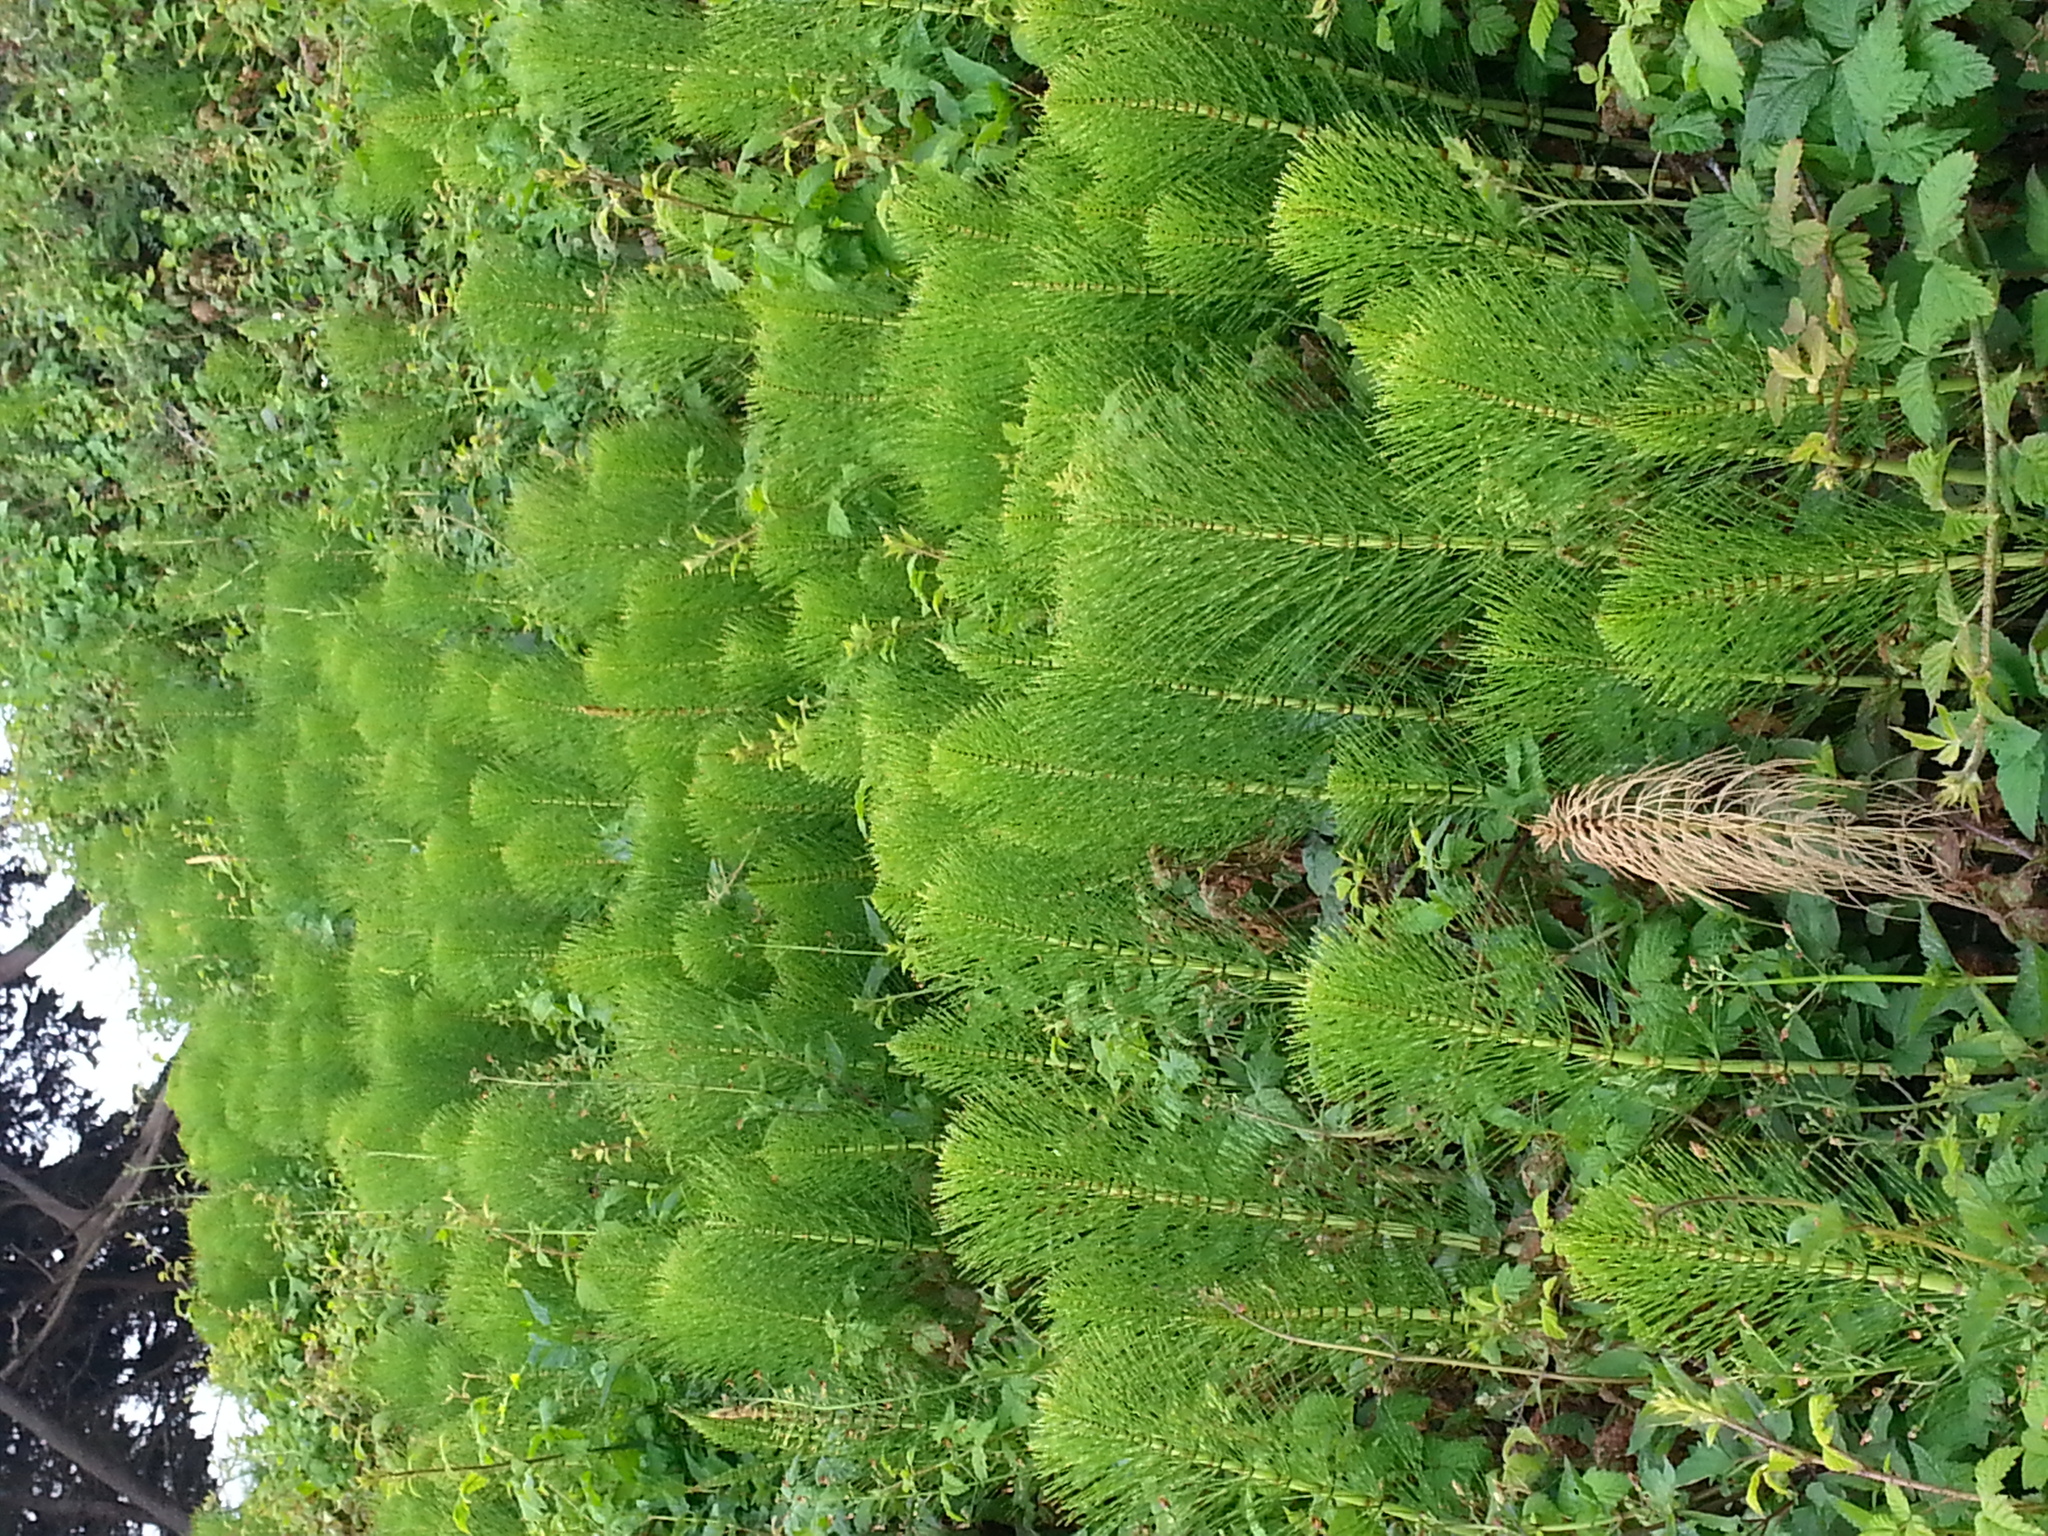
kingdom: Plantae
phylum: Tracheophyta
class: Polypodiopsida
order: Equisetales
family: Equisetaceae
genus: Equisetum
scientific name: Equisetum braunii
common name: Braun's horsetail
